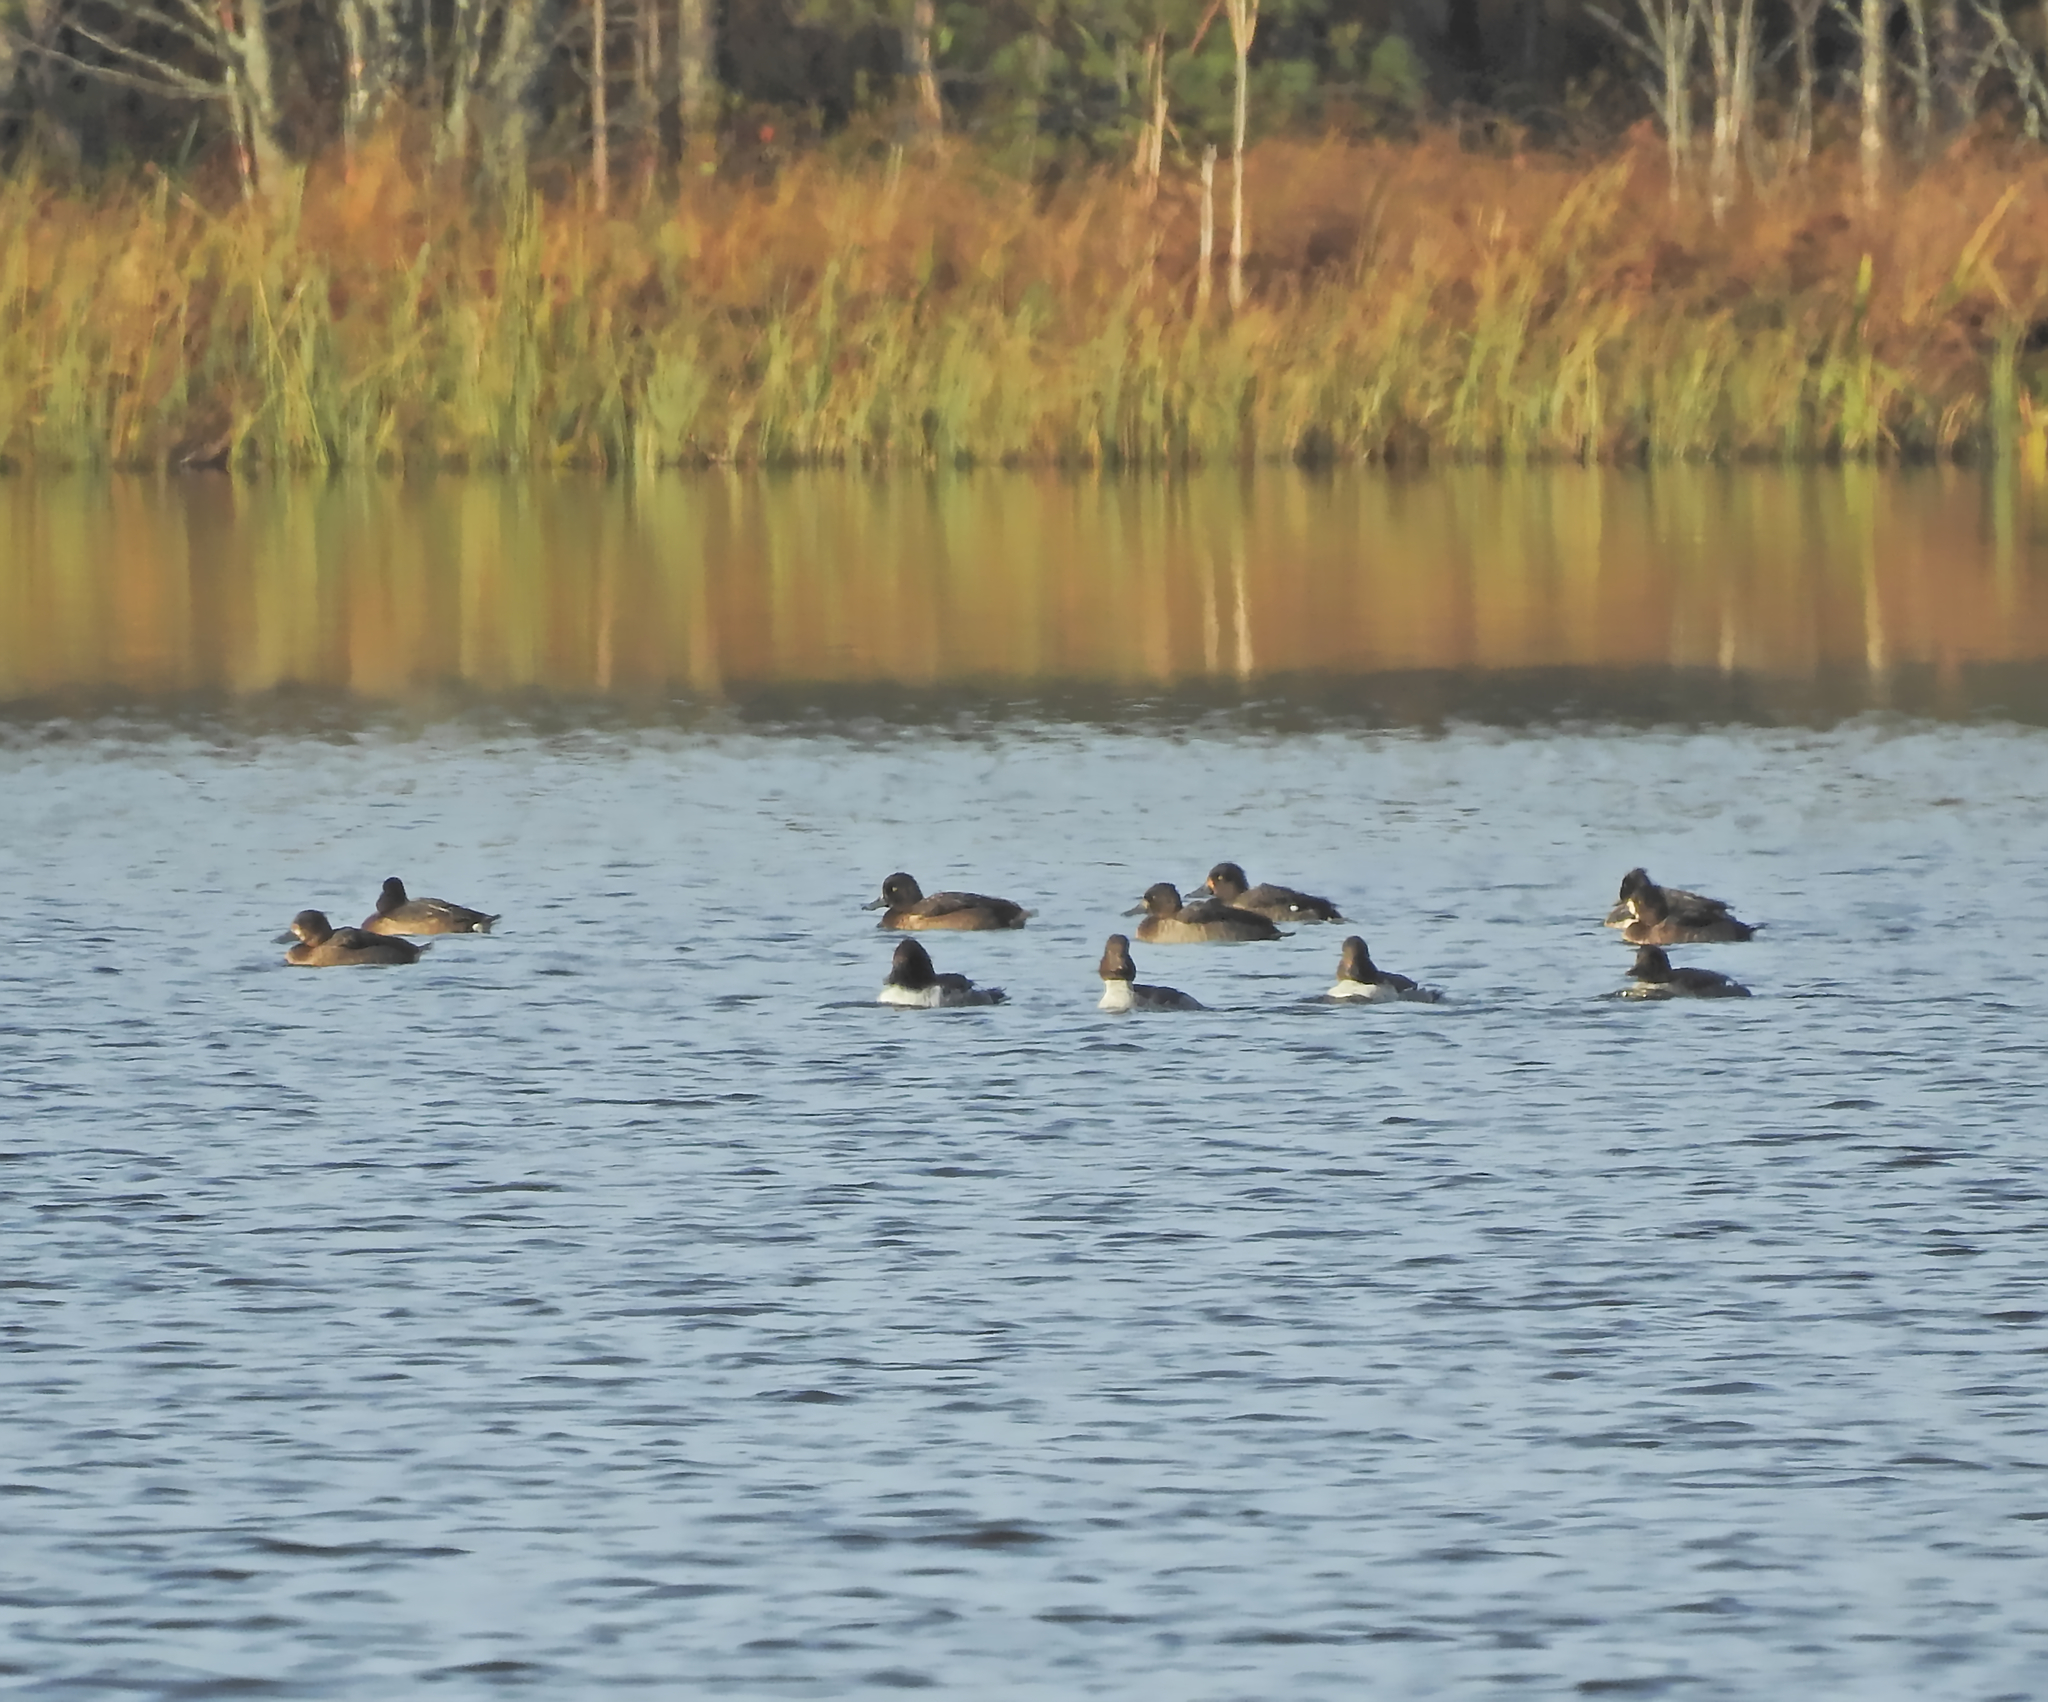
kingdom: Animalia
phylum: Chordata
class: Aves
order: Anseriformes
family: Anatidae
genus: Aythya
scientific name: Aythya fuligula
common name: Tufted duck
